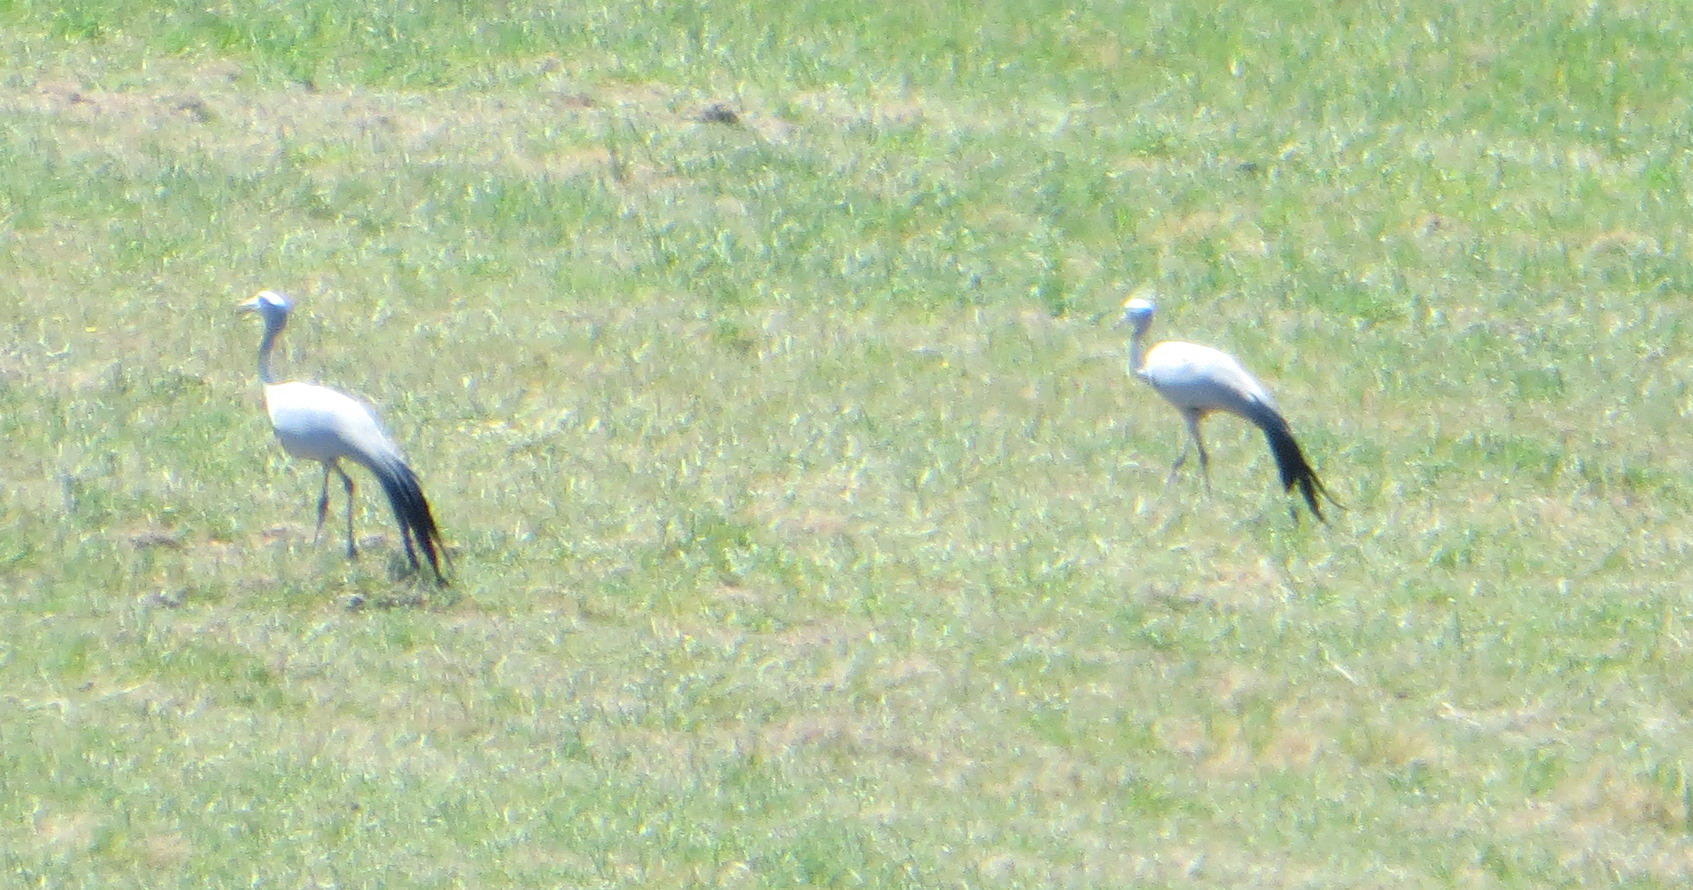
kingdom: Animalia
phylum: Chordata
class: Aves
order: Gruiformes
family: Gruidae
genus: Anthropoides
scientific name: Anthropoides paradiseus
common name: Blue crane
